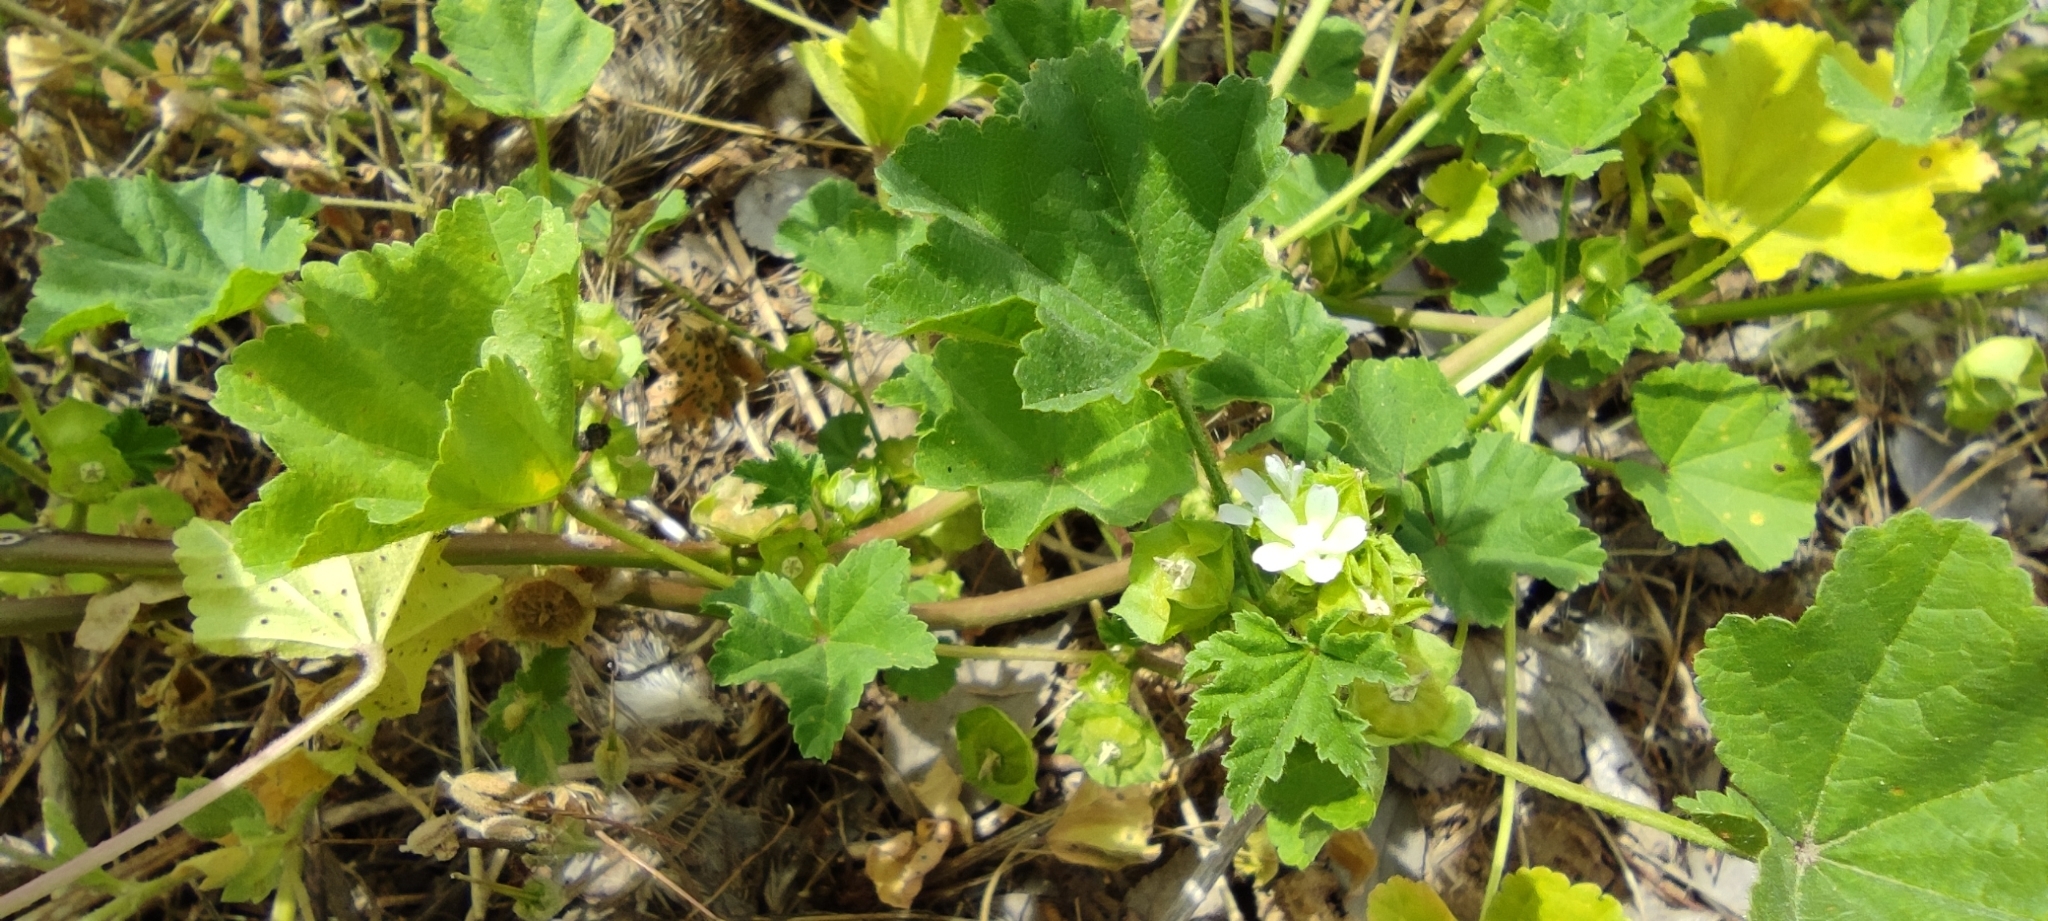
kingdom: Plantae
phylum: Tracheophyta
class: Magnoliopsida
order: Malvales
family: Malvaceae
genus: Malva
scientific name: Malva parviflora
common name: Least mallow
